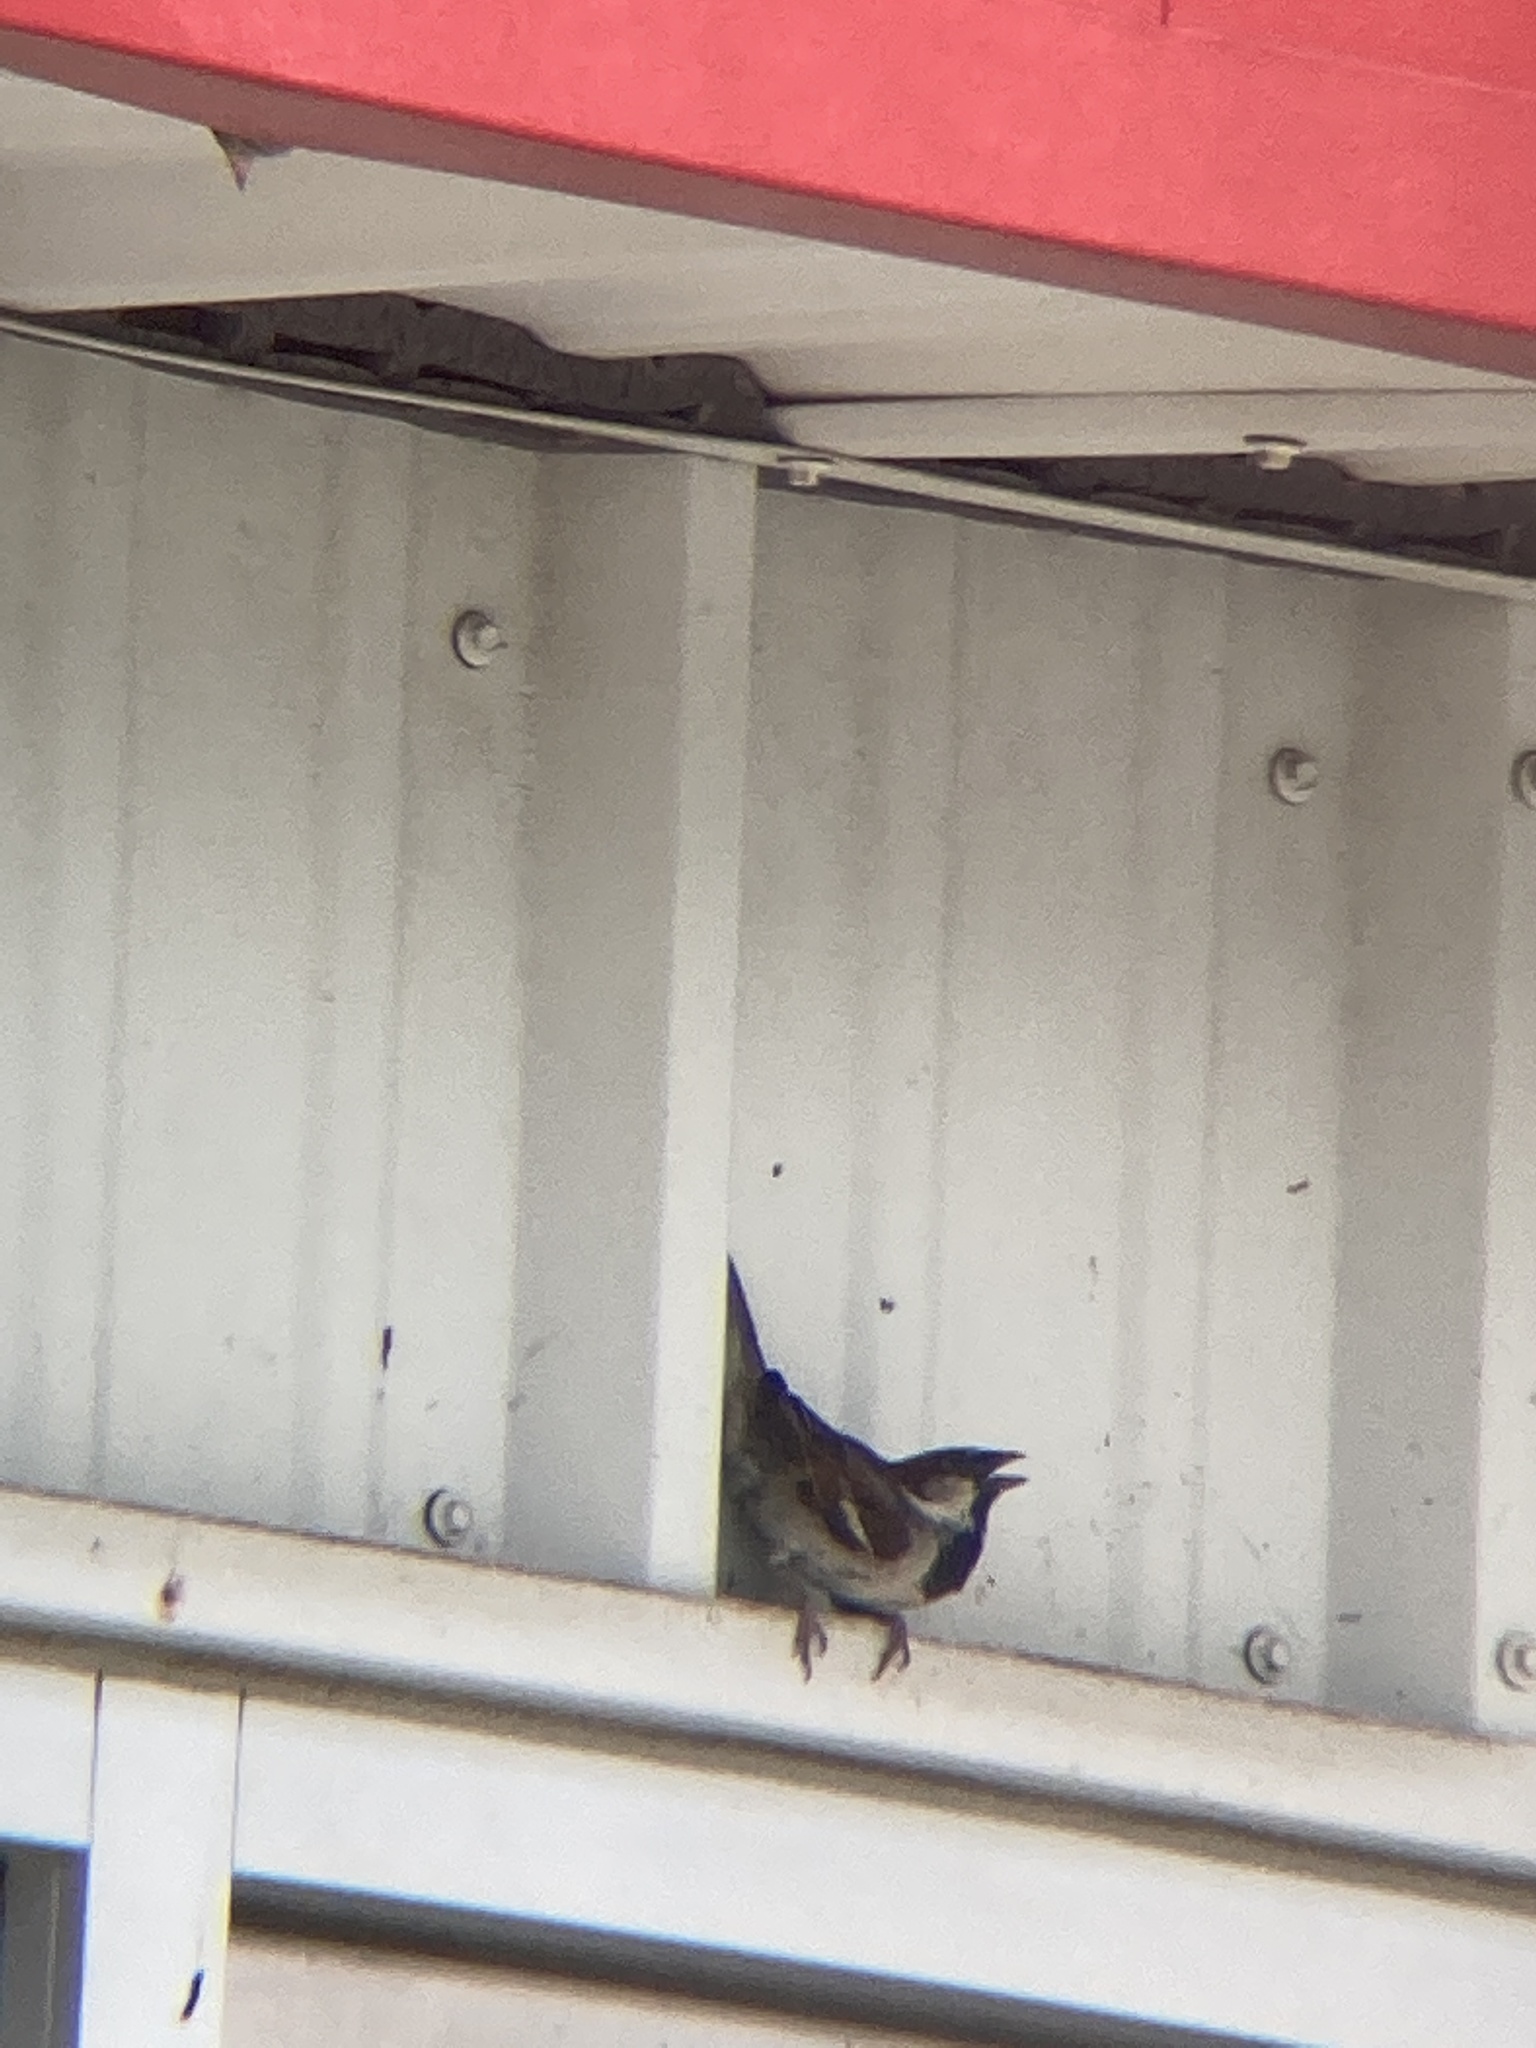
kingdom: Animalia
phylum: Chordata
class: Aves
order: Passeriformes
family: Passeridae
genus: Passer
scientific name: Passer domesticus
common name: House sparrow
